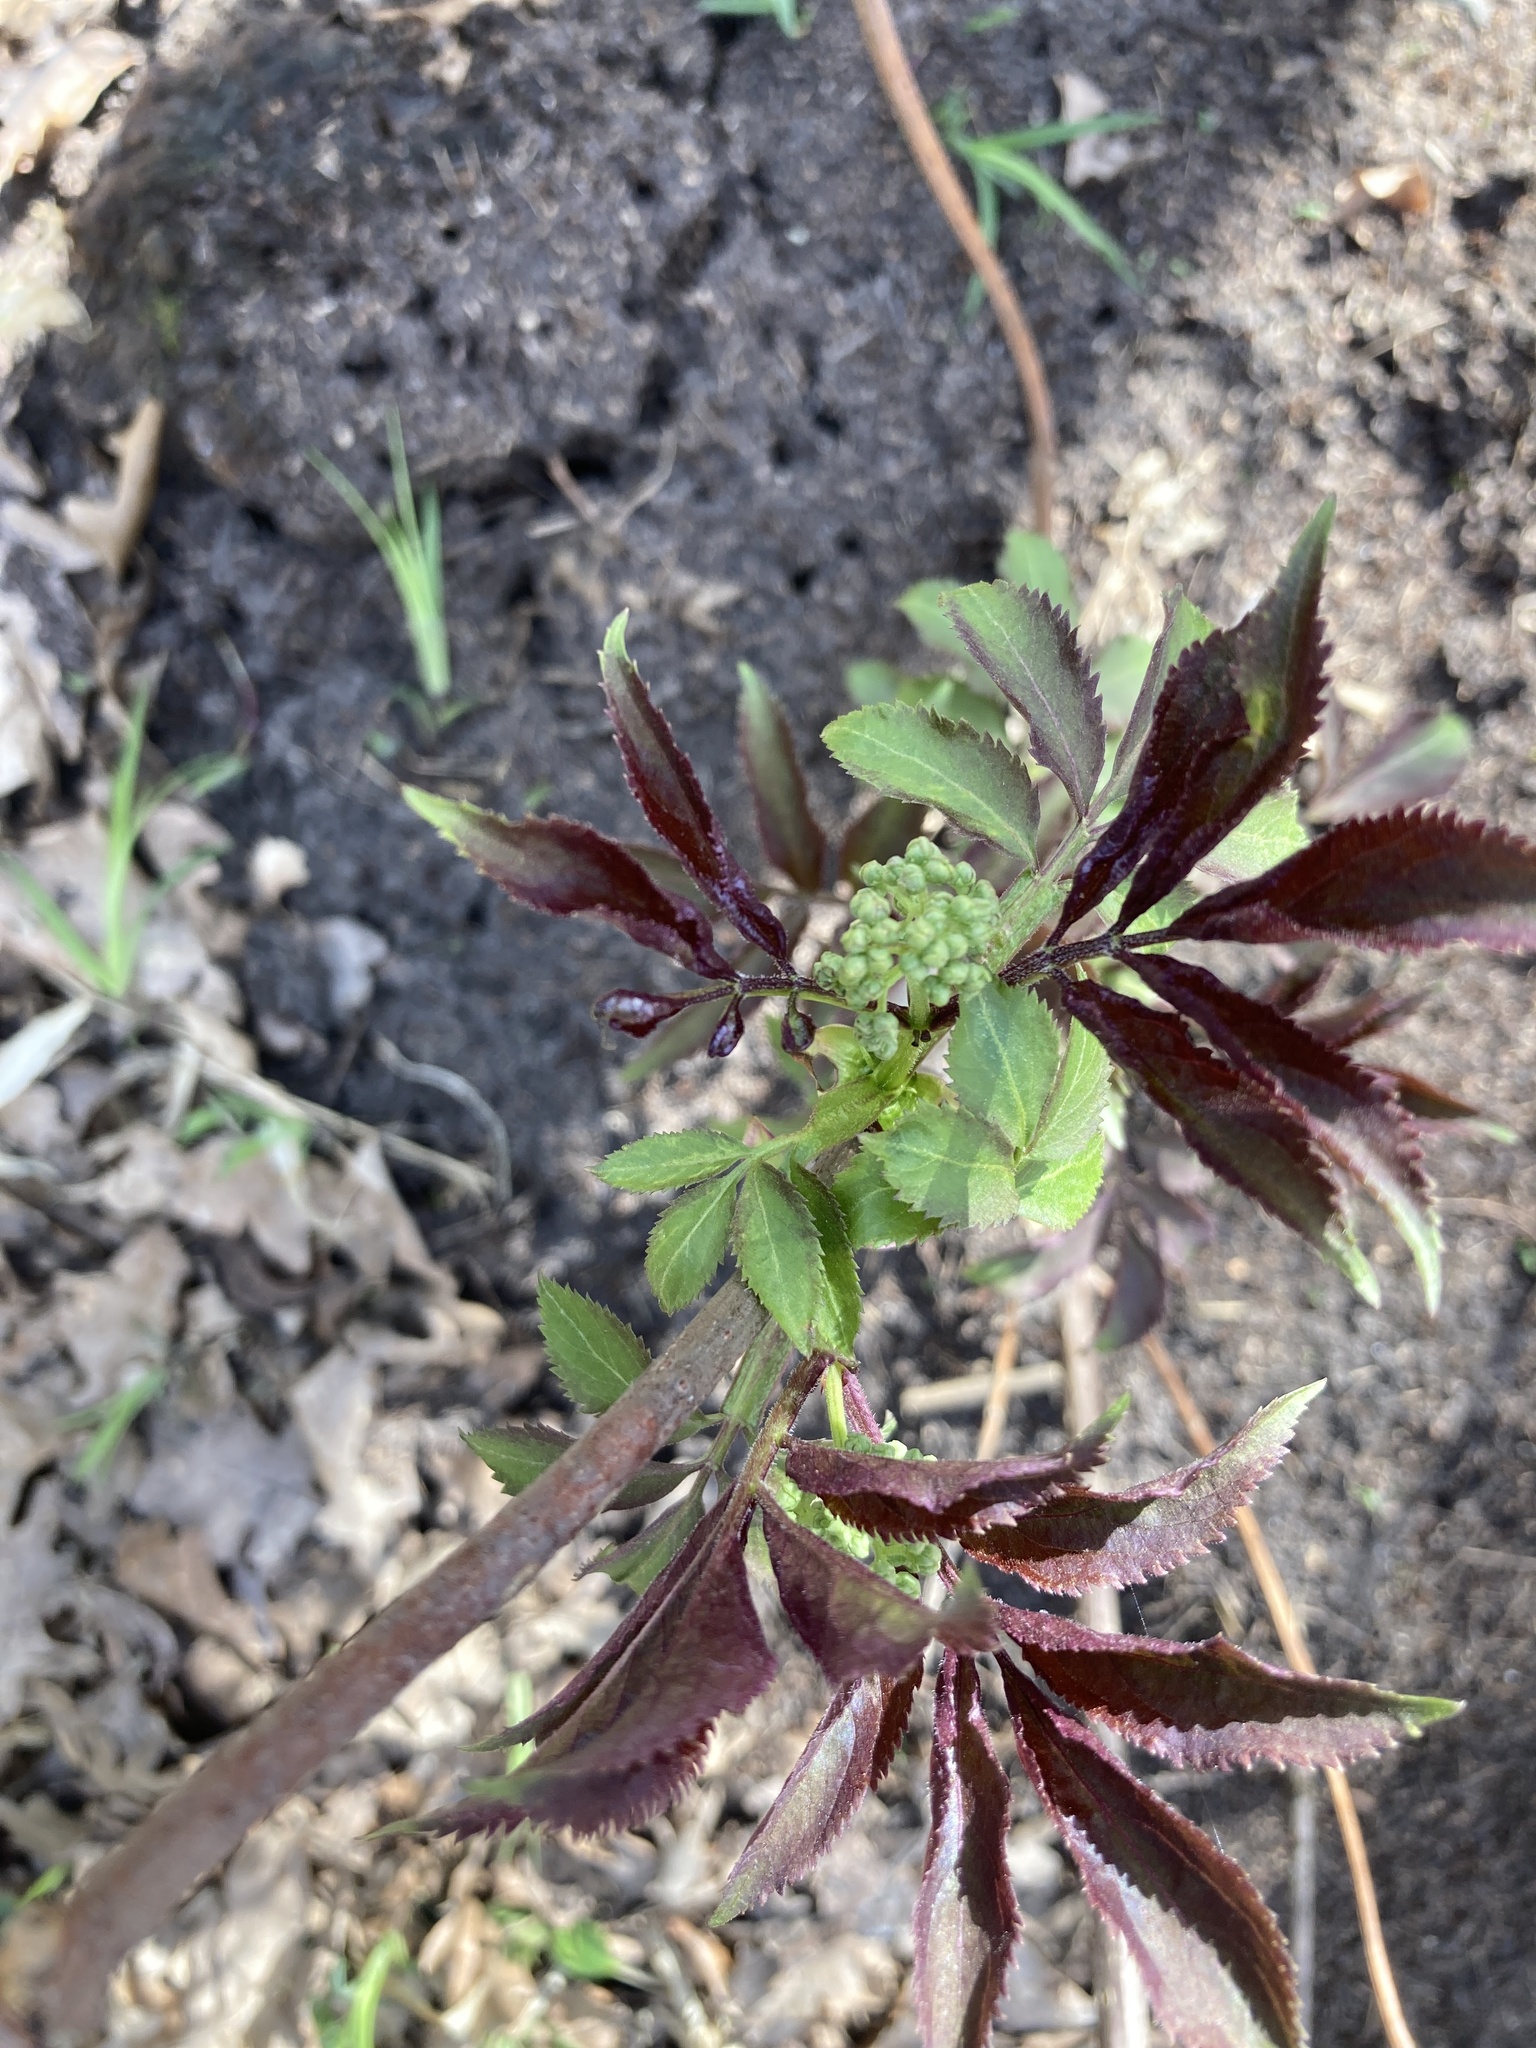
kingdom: Plantae
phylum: Tracheophyta
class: Magnoliopsida
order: Dipsacales
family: Viburnaceae
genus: Sambucus
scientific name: Sambucus racemosa
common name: Red-berried elder
